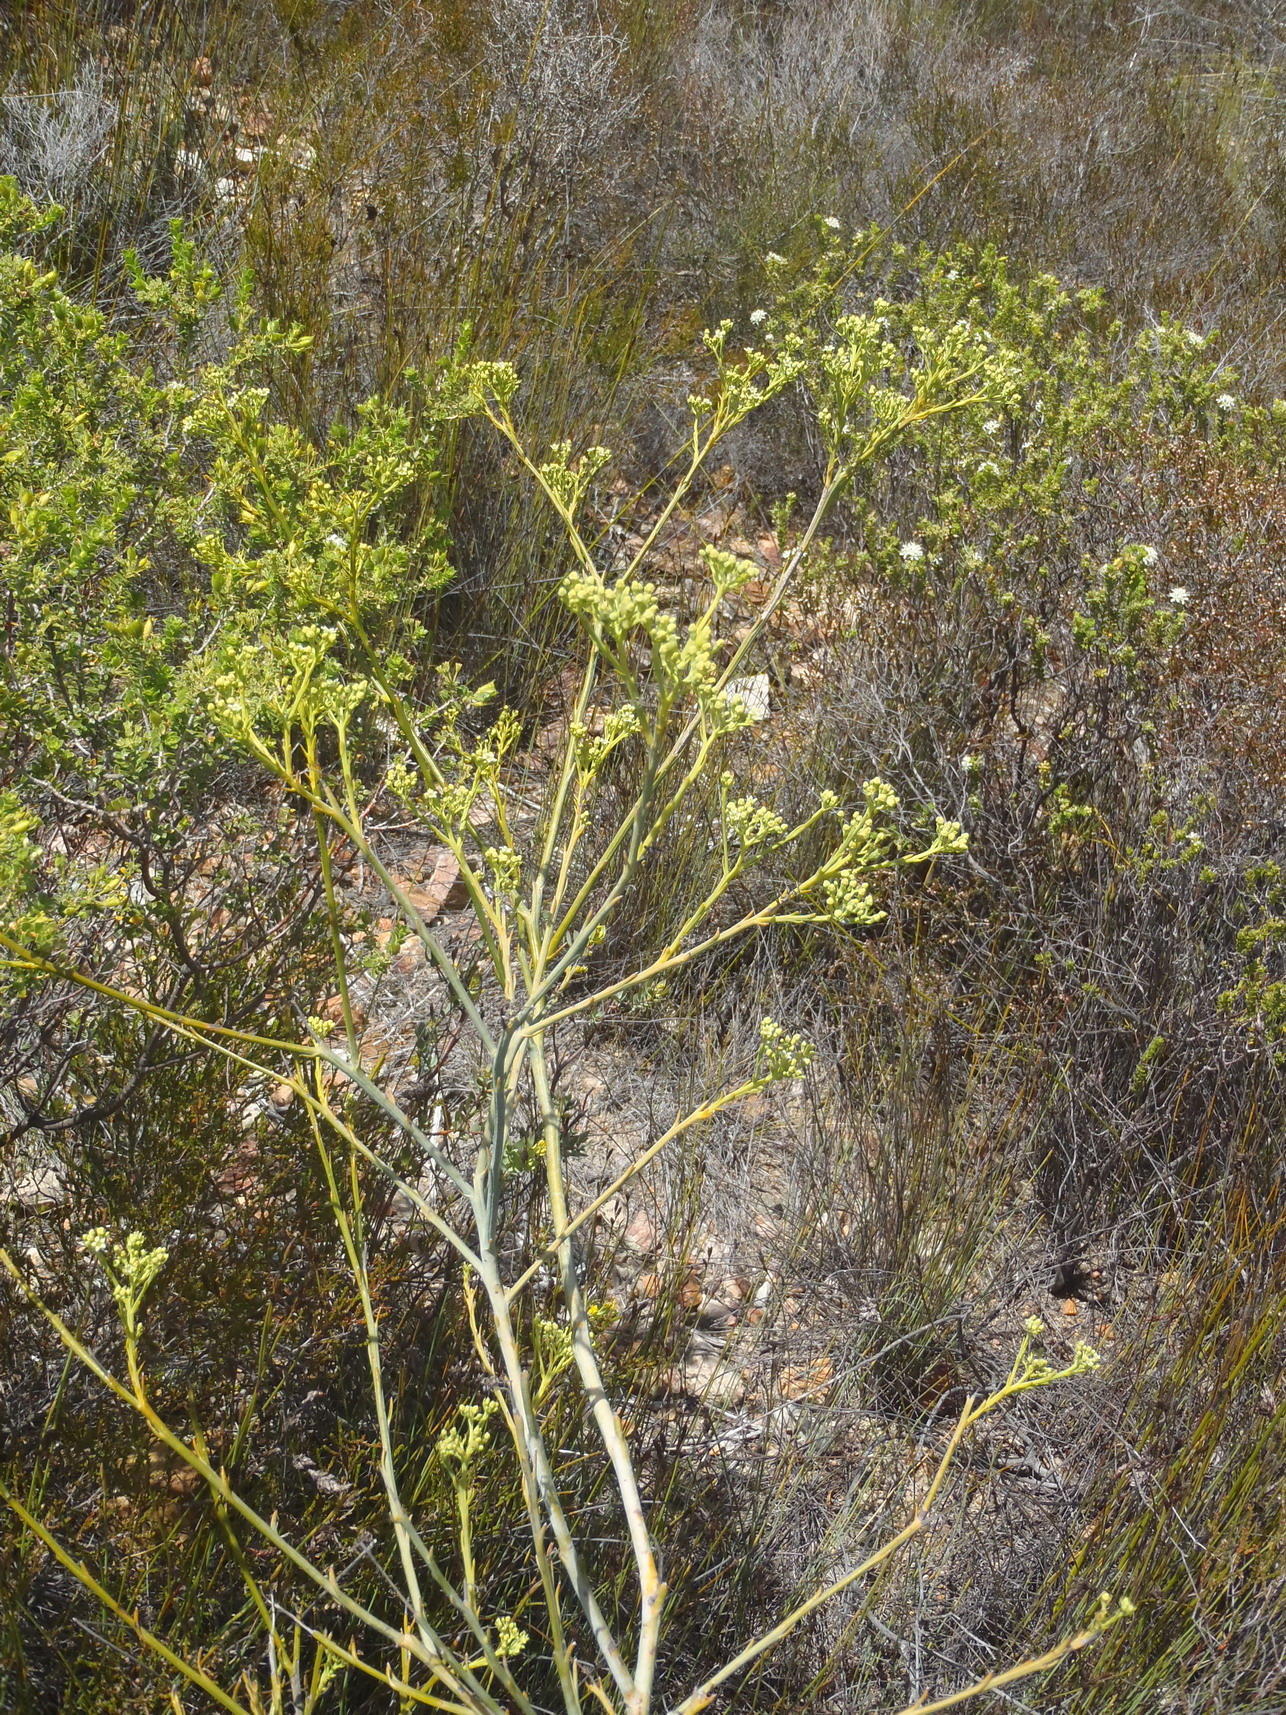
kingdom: Plantae
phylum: Tracheophyta
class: Magnoliopsida
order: Santalales
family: Thesiaceae
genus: Thesium
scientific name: Thesium strictum
